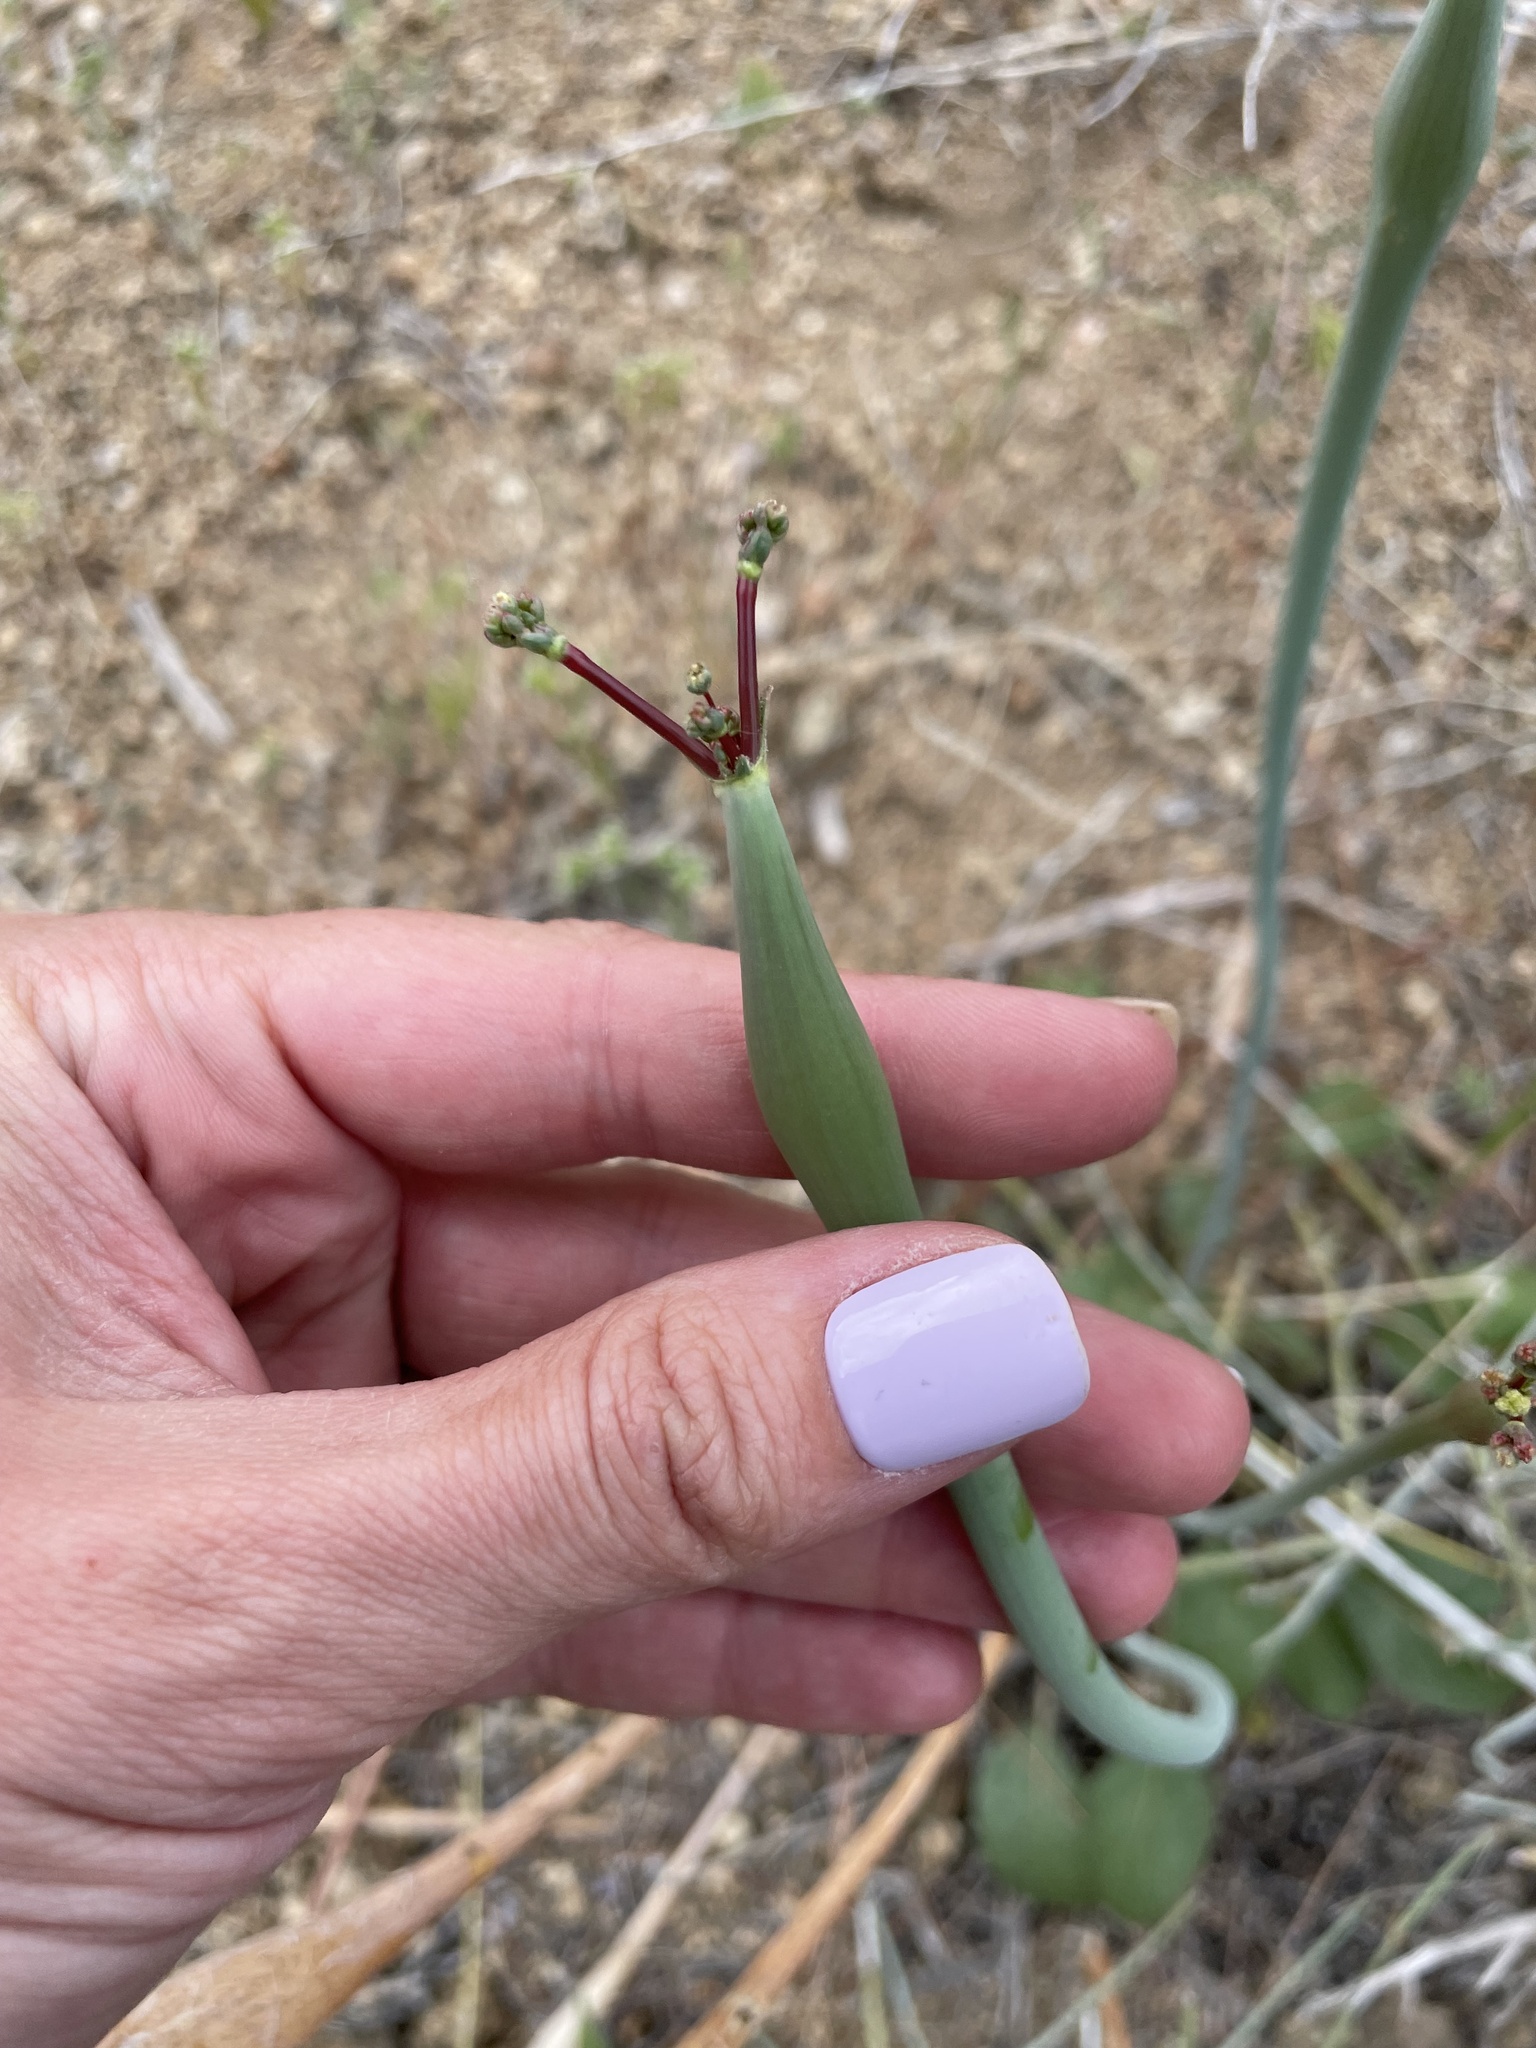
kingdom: Plantae
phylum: Tracheophyta
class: Magnoliopsida
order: Caryophyllales
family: Polygonaceae
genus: Eriogonum
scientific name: Eriogonum inflatum
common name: Desert trumpet
